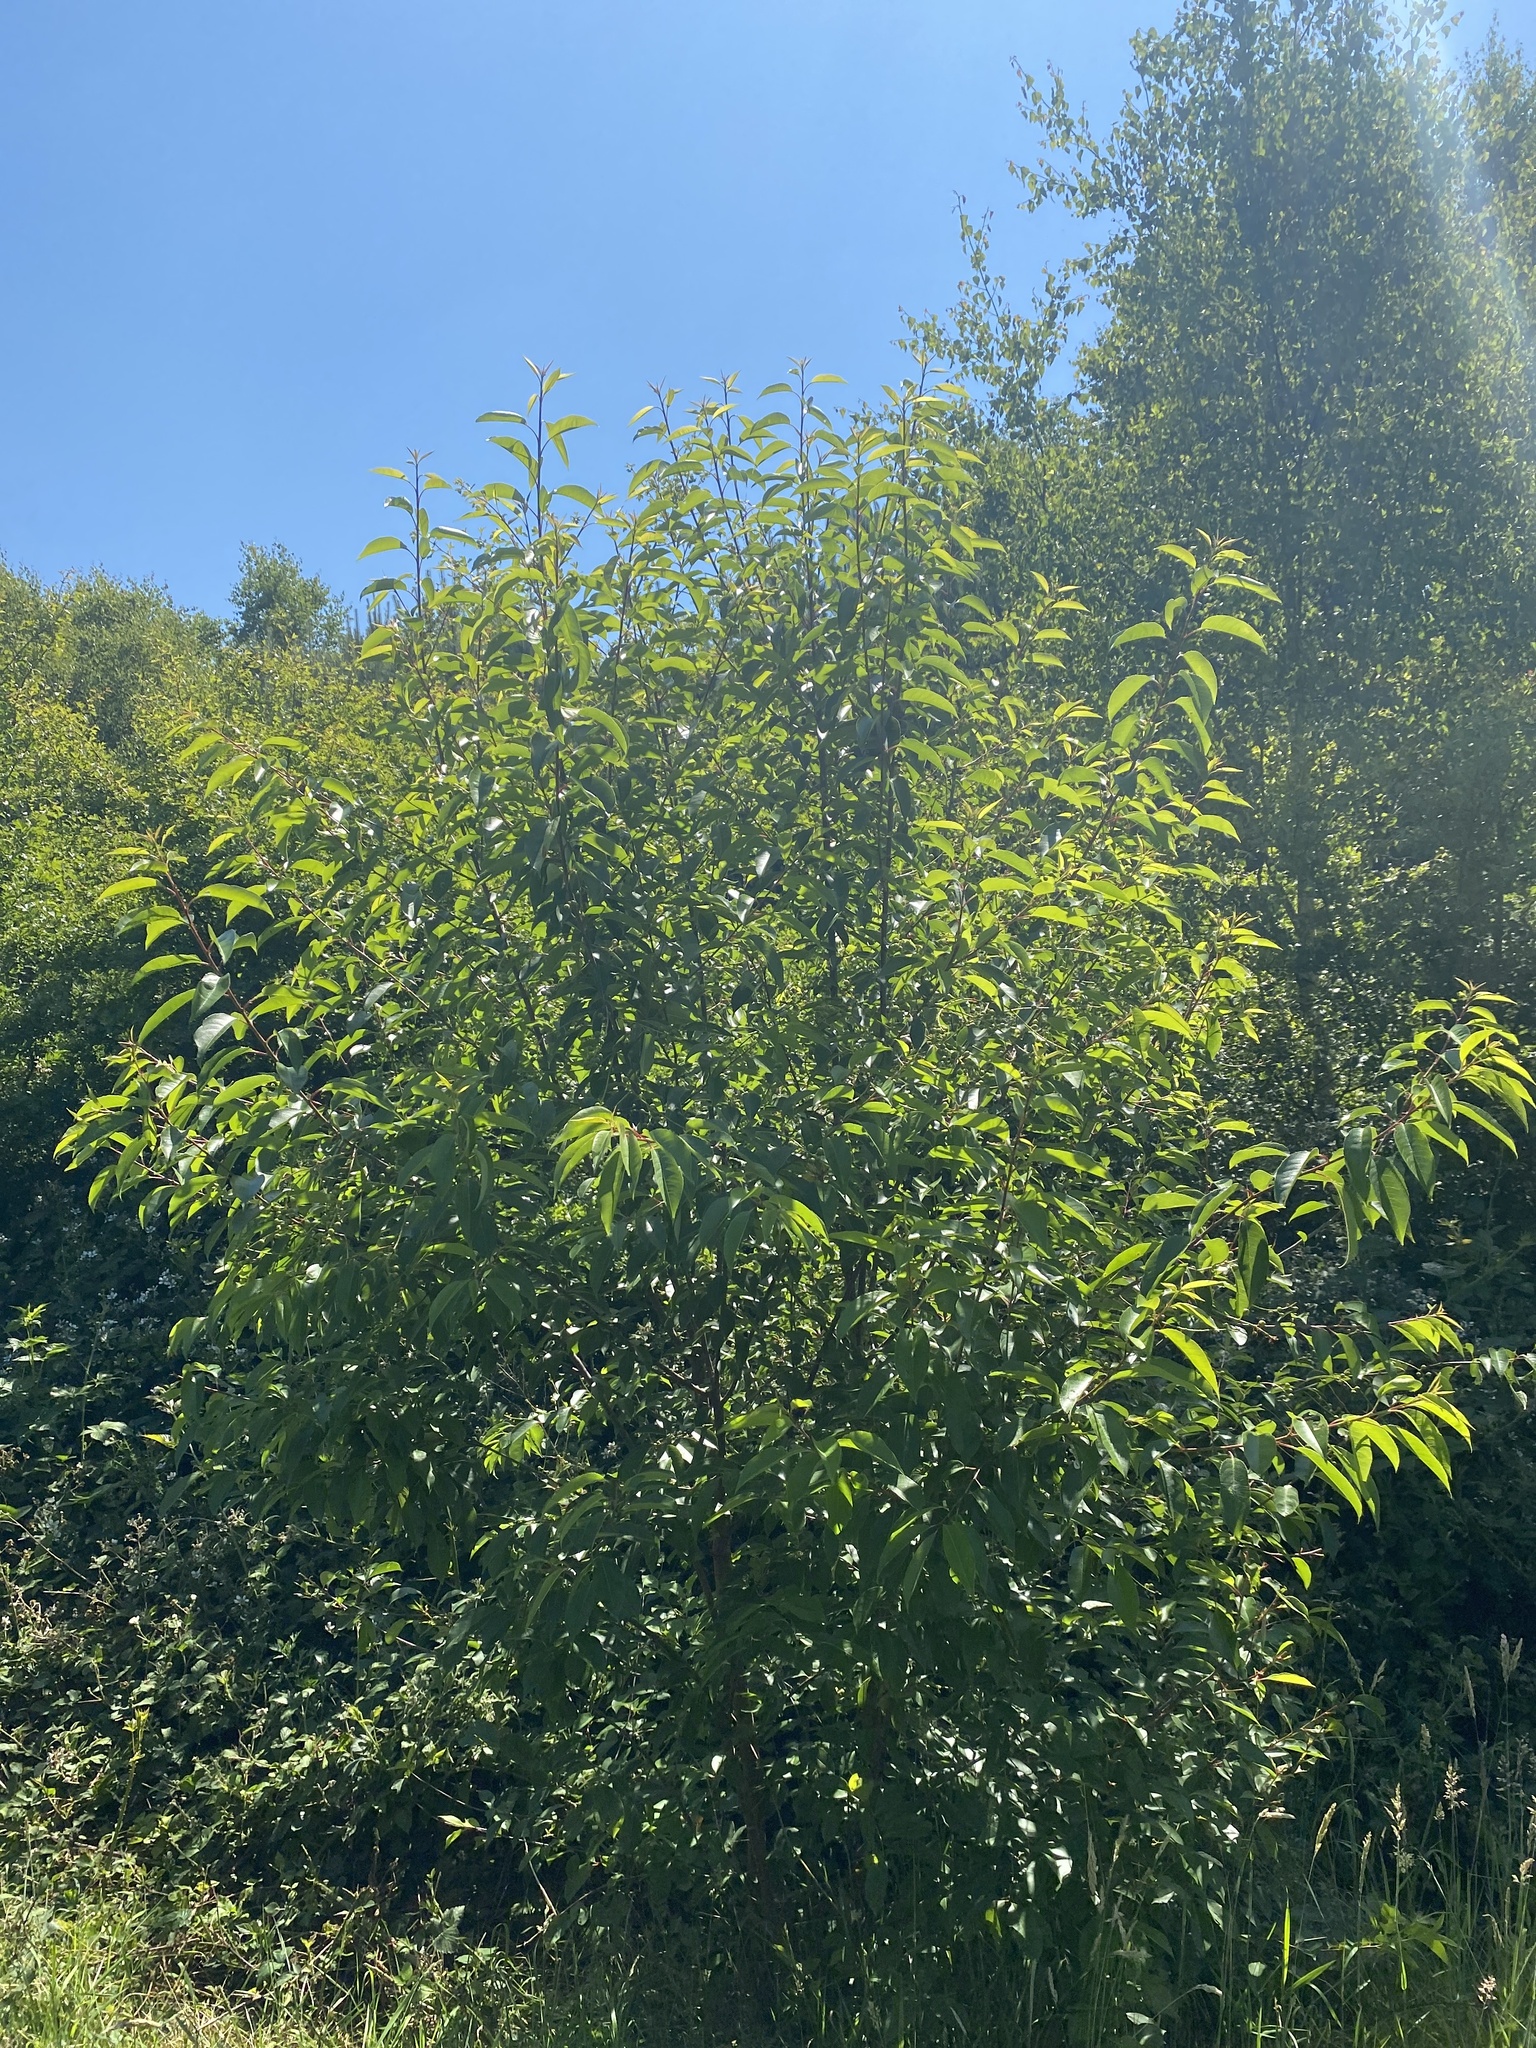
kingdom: Plantae
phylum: Tracheophyta
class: Magnoliopsida
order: Rosales
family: Rosaceae
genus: Prunus
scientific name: Prunus serotina
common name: Black cherry
